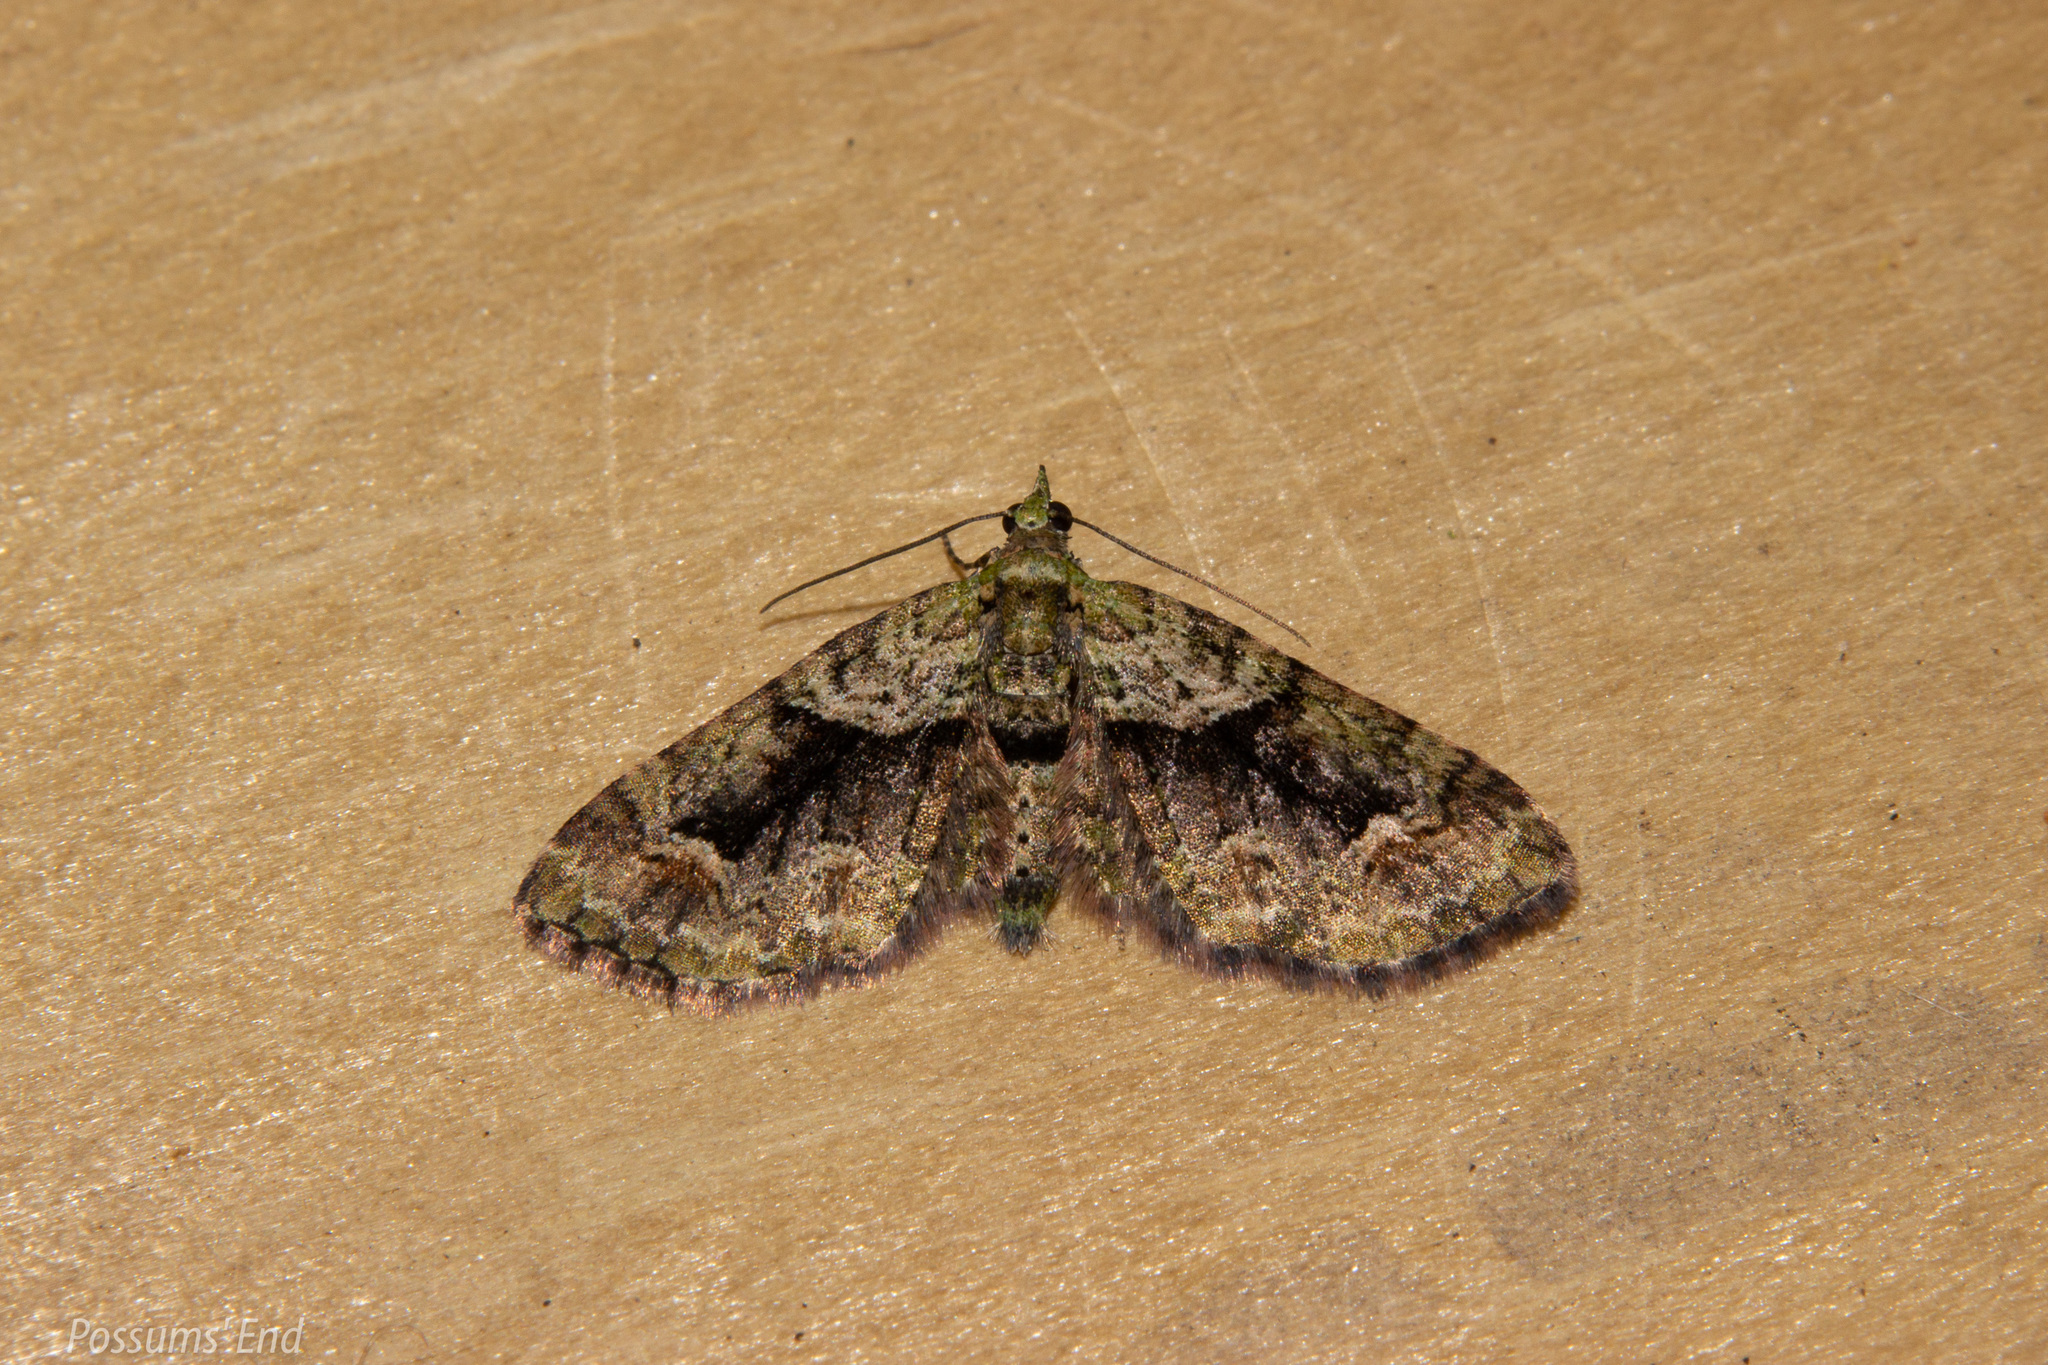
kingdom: Animalia
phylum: Arthropoda
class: Insecta
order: Lepidoptera
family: Geometridae
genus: Pasiphila
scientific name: Pasiphila suffusa
